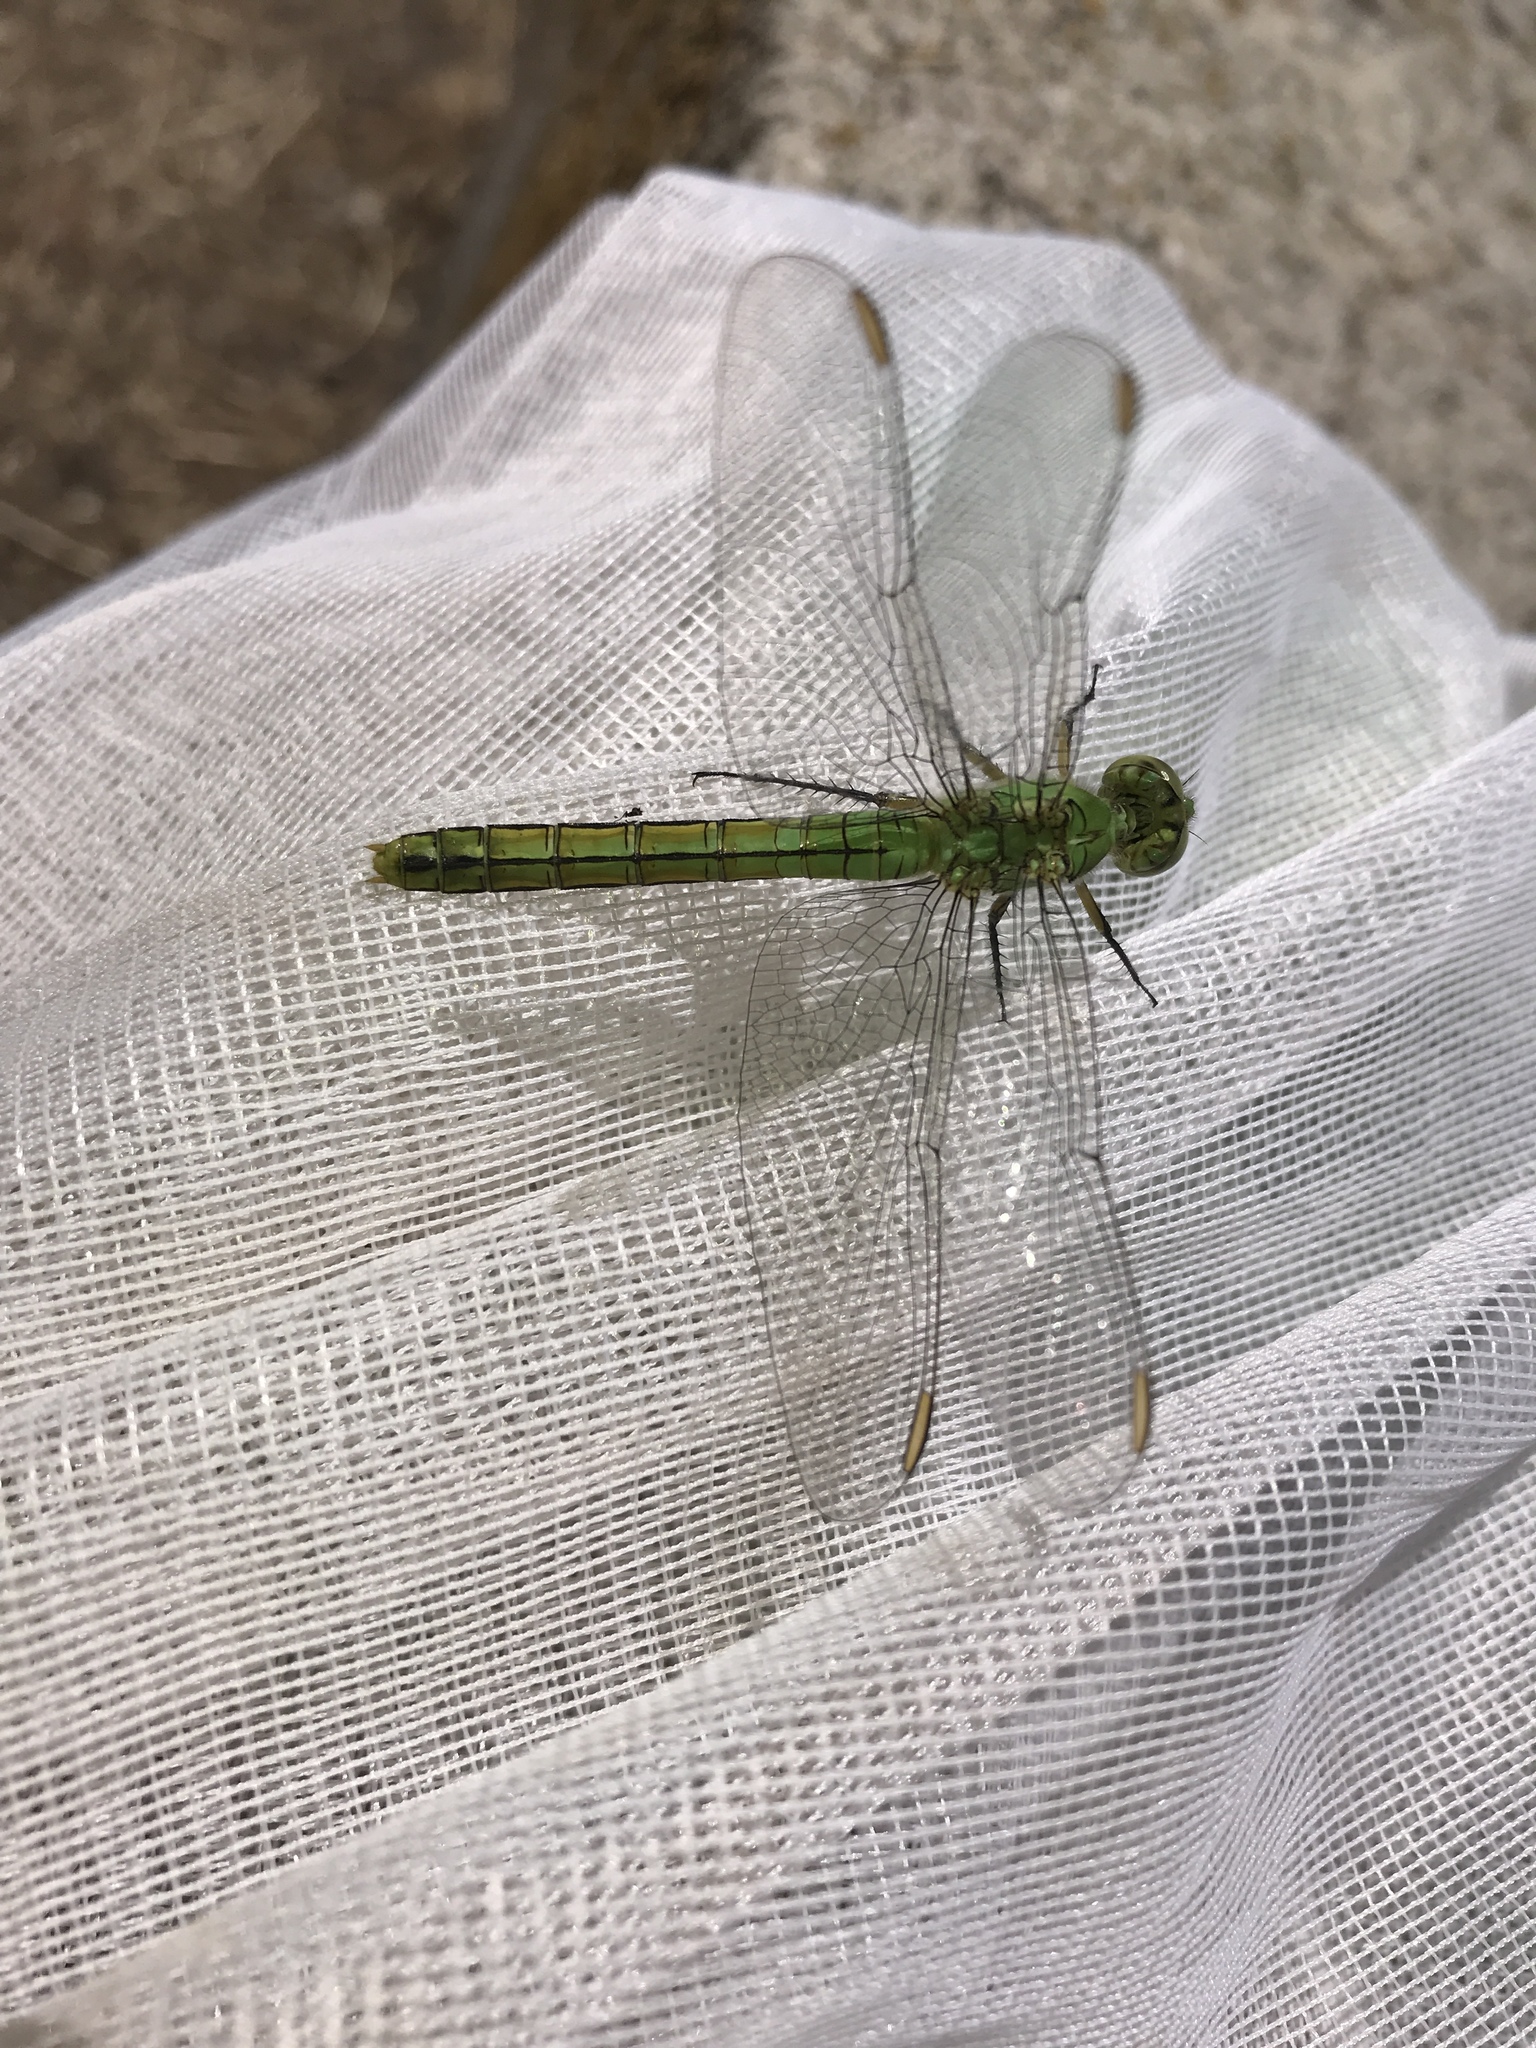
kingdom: Animalia
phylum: Arthropoda
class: Insecta
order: Odonata
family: Libellulidae
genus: Erythemis
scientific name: Erythemis collocata
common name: Western pondhawk
